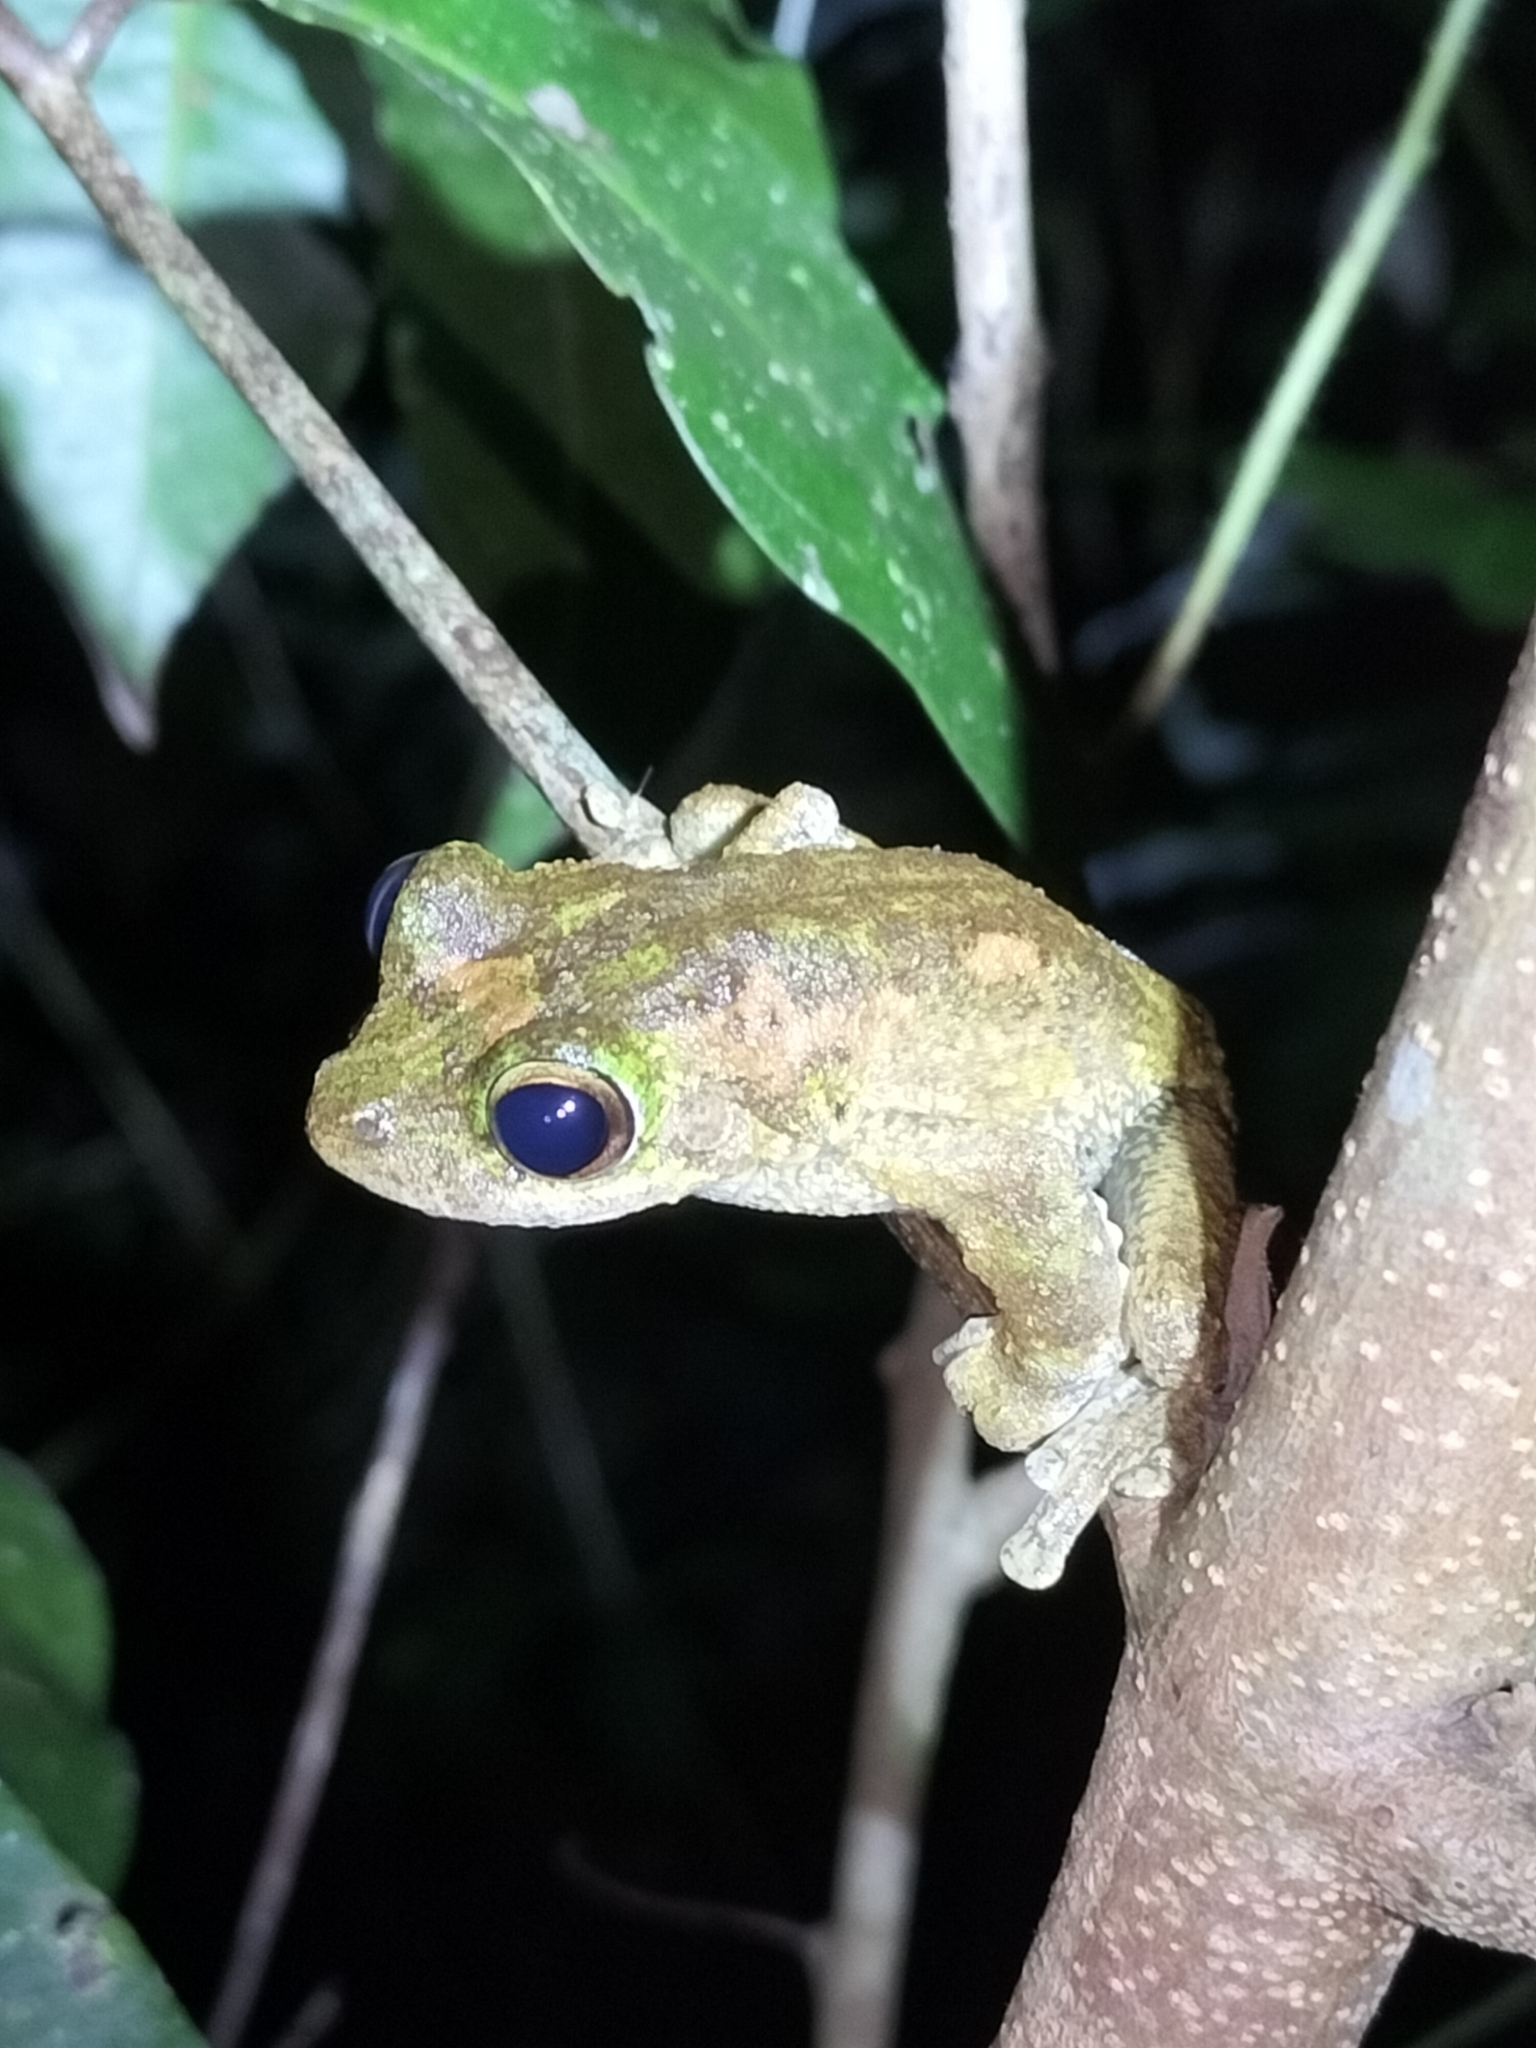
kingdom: Animalia
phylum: Chordata
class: Amphibia
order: Anura
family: Pelodryadidae
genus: Ranoidea
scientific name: Ranoidea serrata
